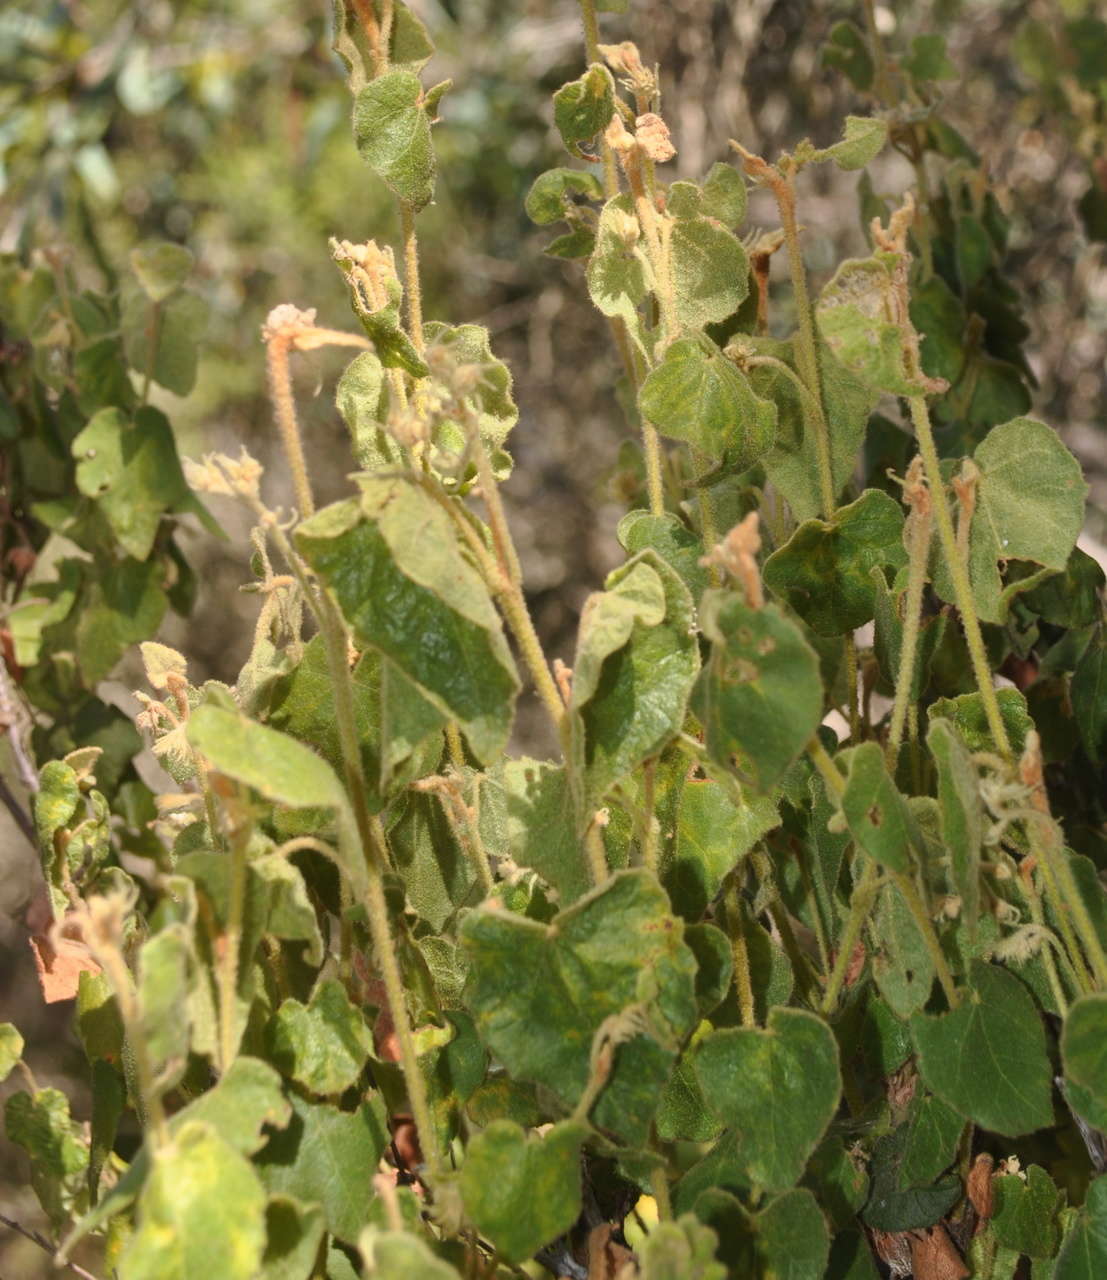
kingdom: Plantae
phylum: Tracheophyta
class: Magnoliopsida
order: Malvales
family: Malvaceae
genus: Lasiopetalum
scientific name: Lasiopetalum schulzenii
